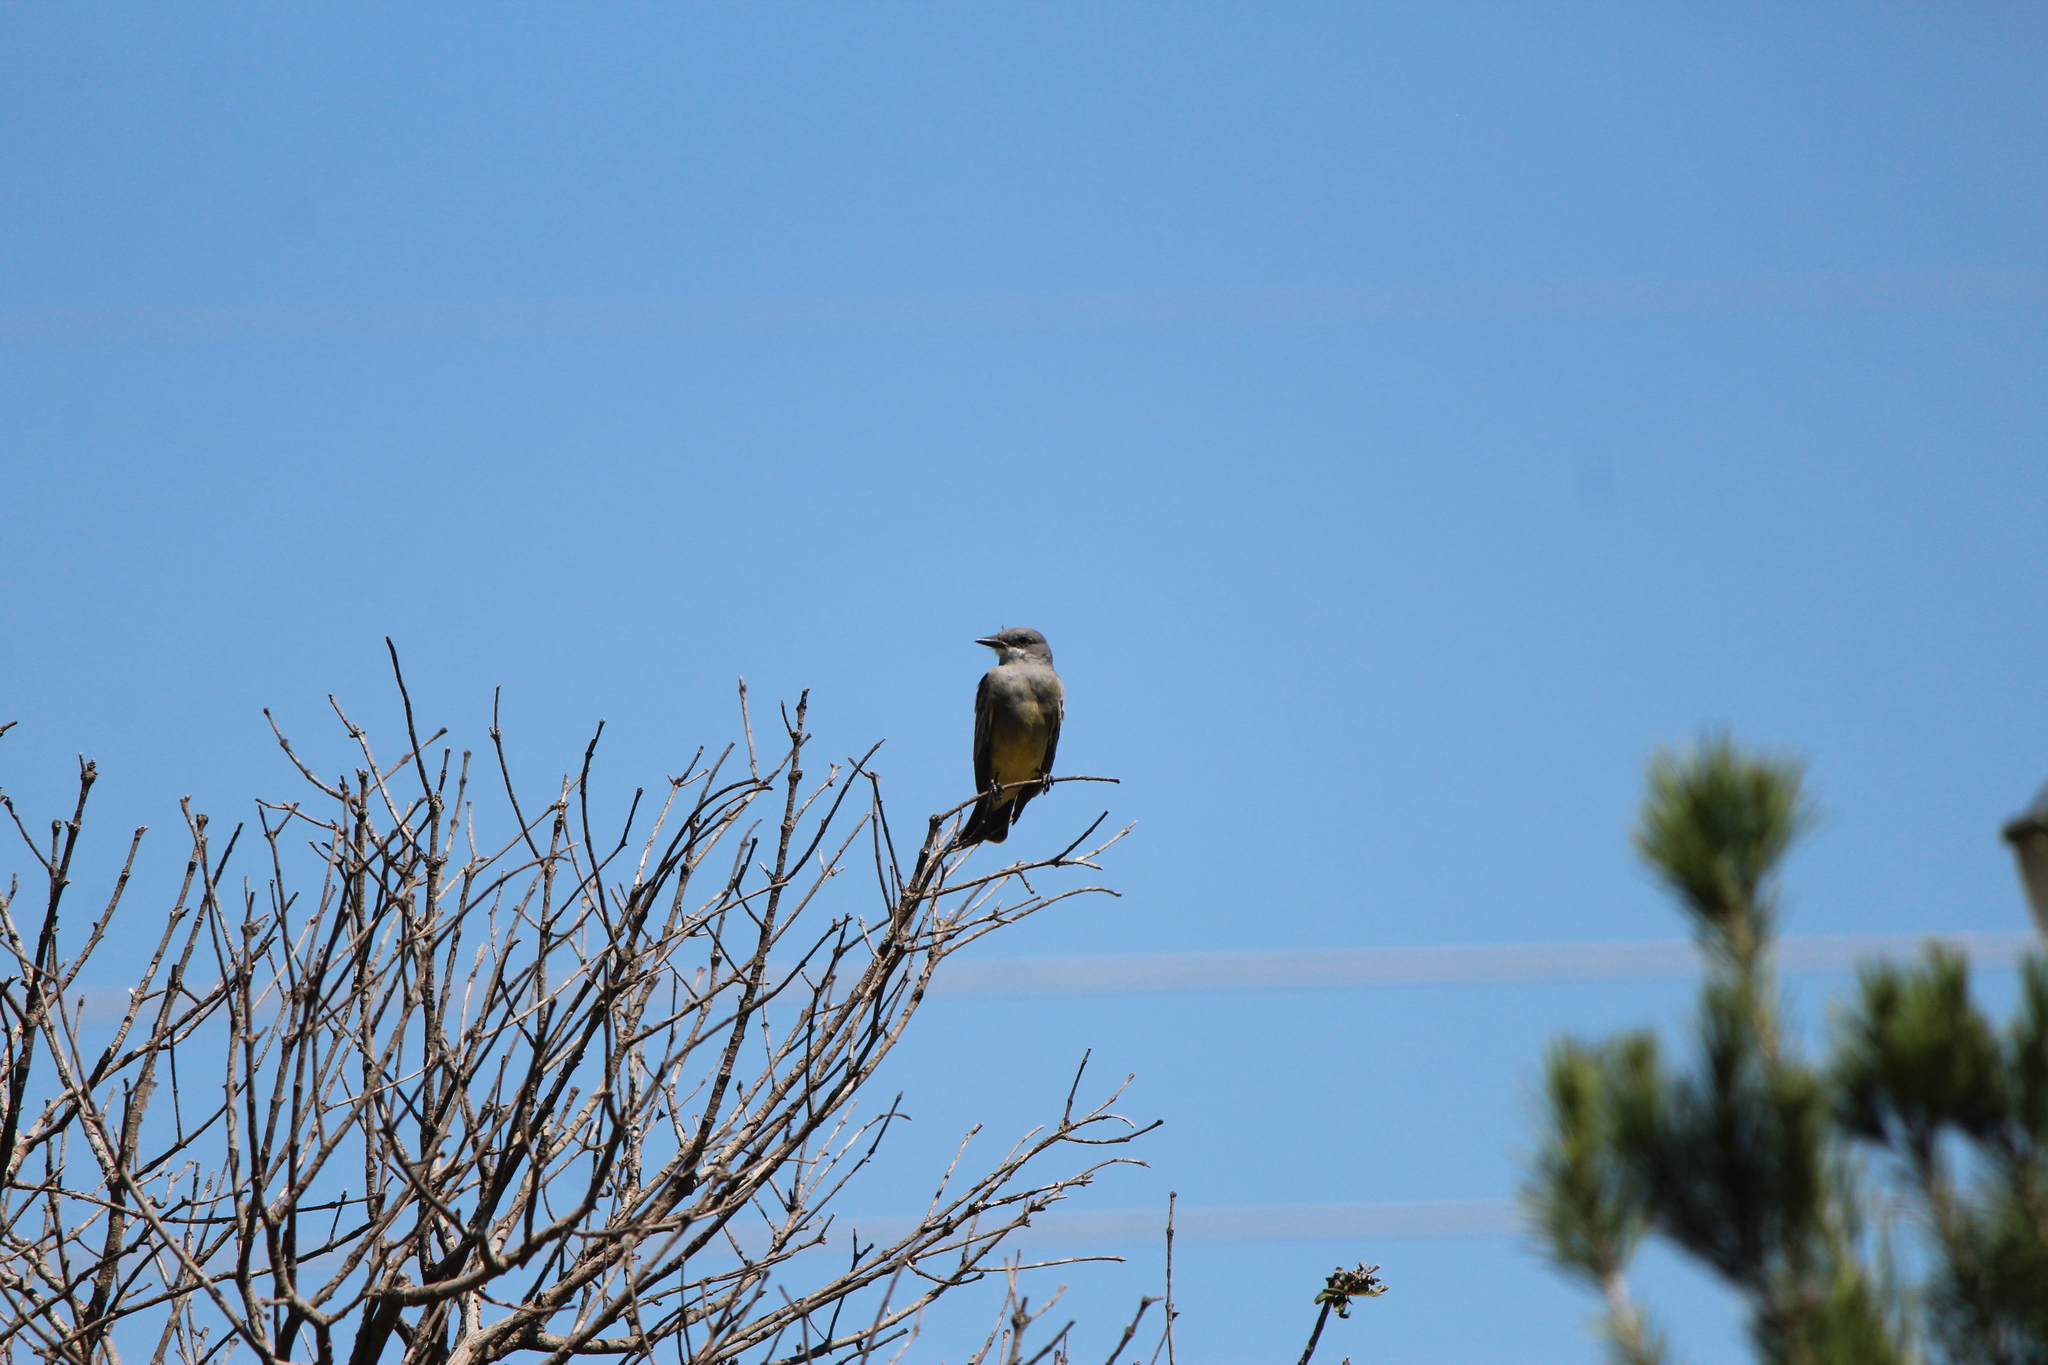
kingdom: Animalia
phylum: Chordata
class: Aves
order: Passeriformes
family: Tyrannidae
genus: Tyrannus
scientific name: Tyrannus vociferans
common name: Cassin's kingbird
